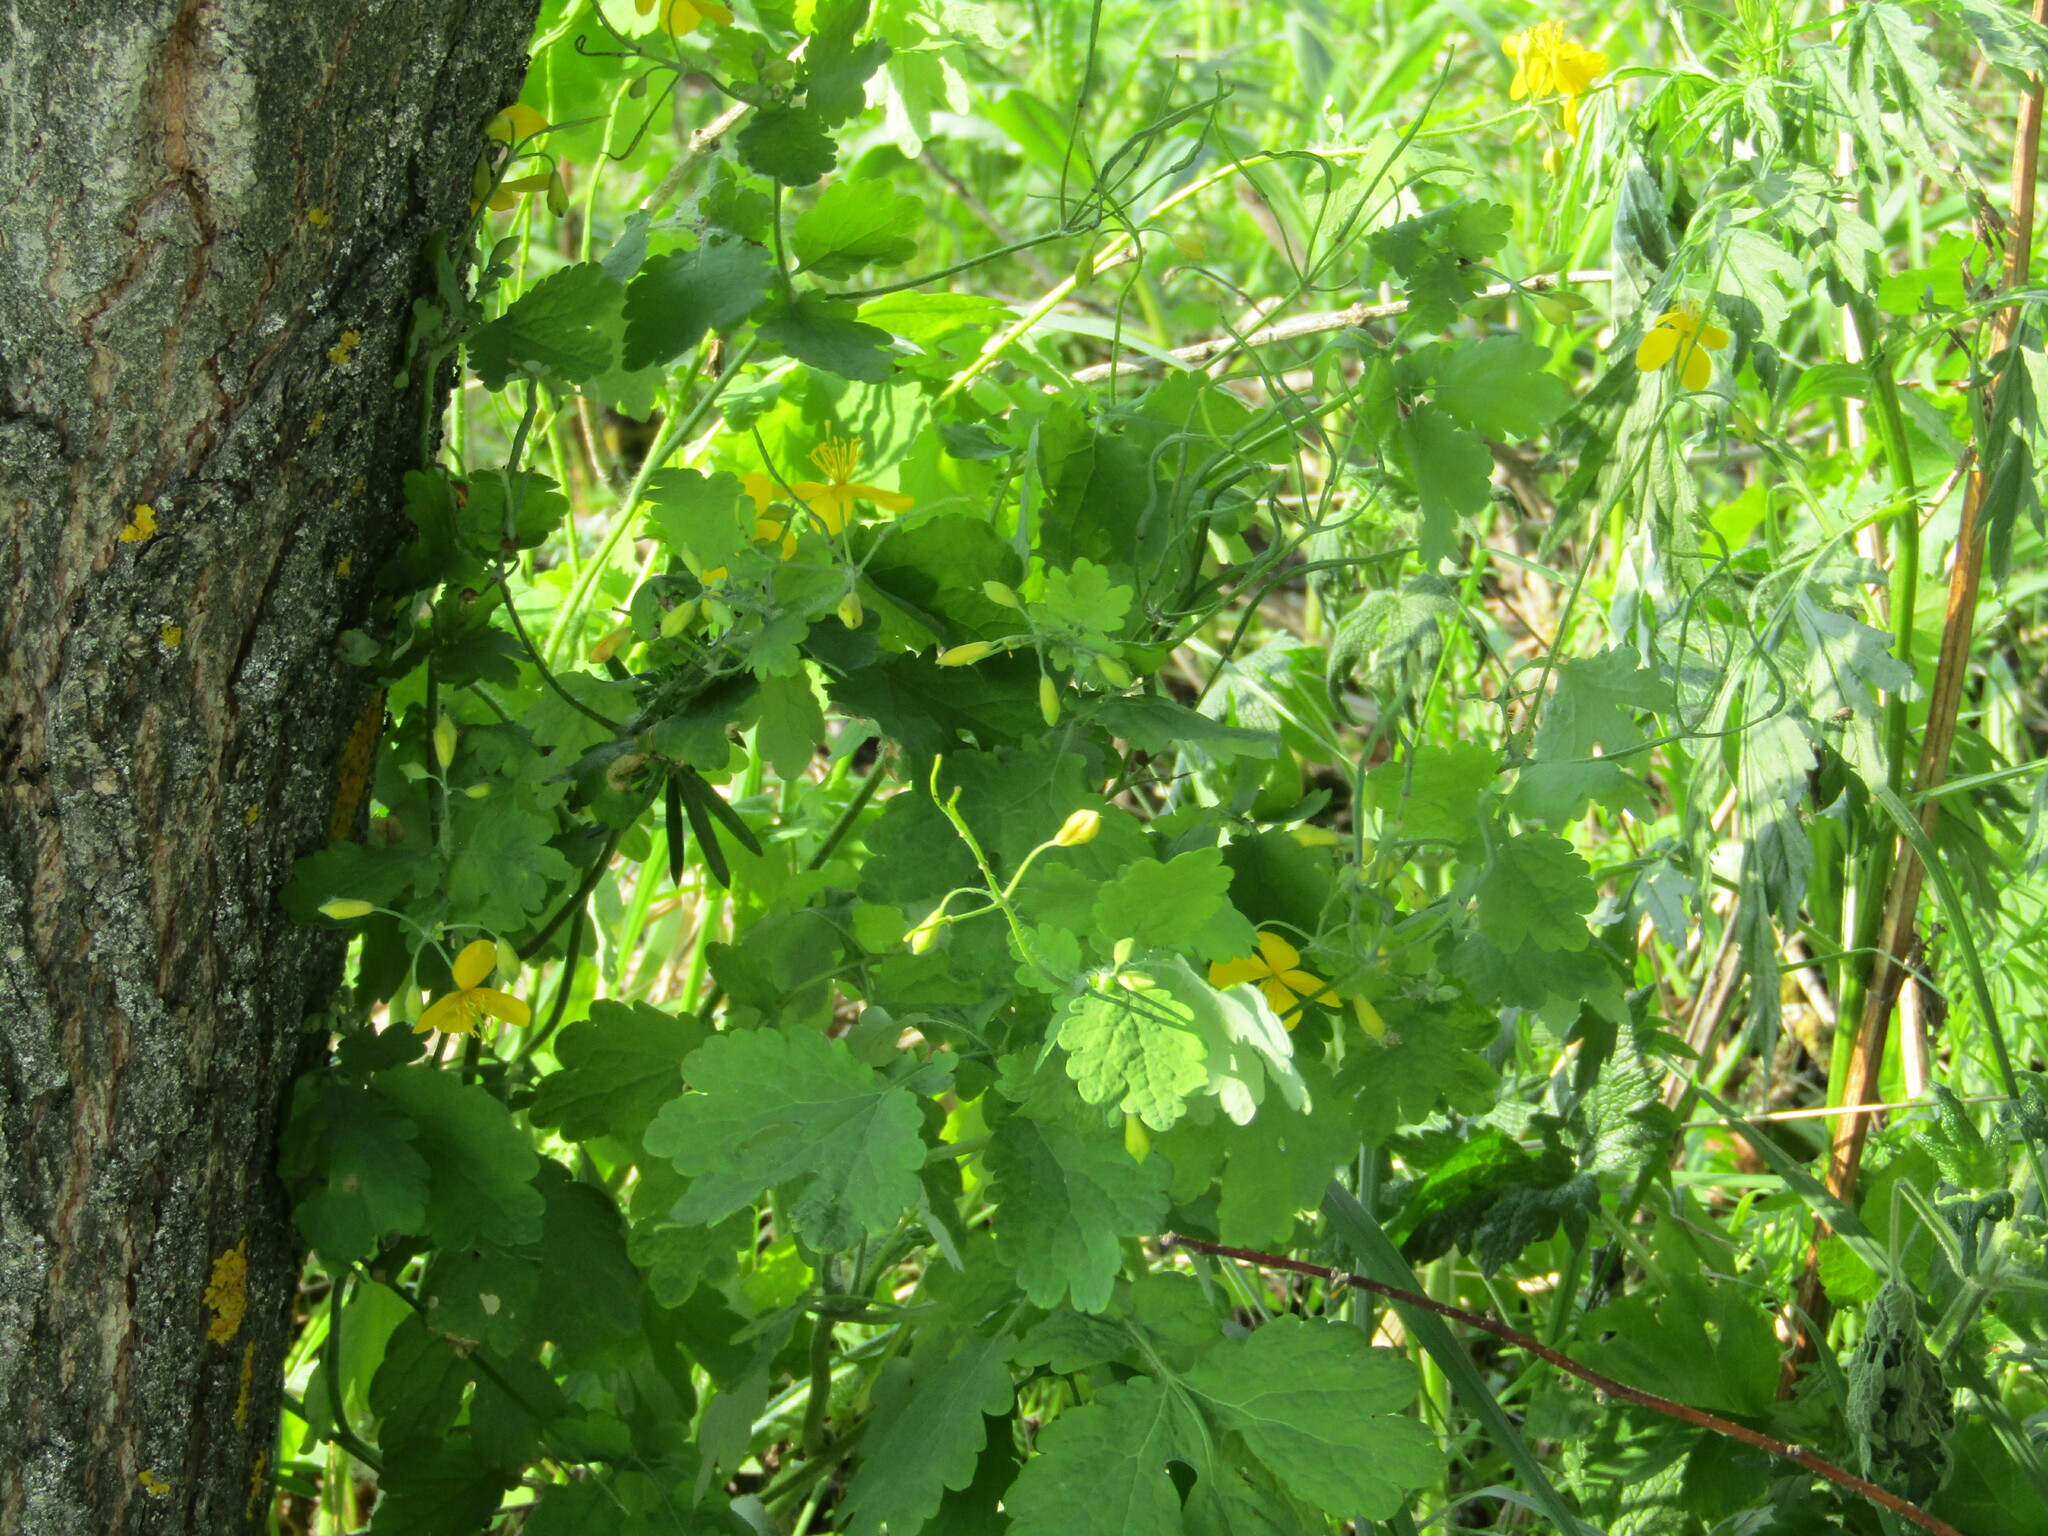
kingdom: Plantae
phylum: Tracheophyta
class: Magnoliopsida
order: Ranunculales
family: Papaveraceae
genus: Chelidonium
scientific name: Chelidonium majus
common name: Greater celandine
